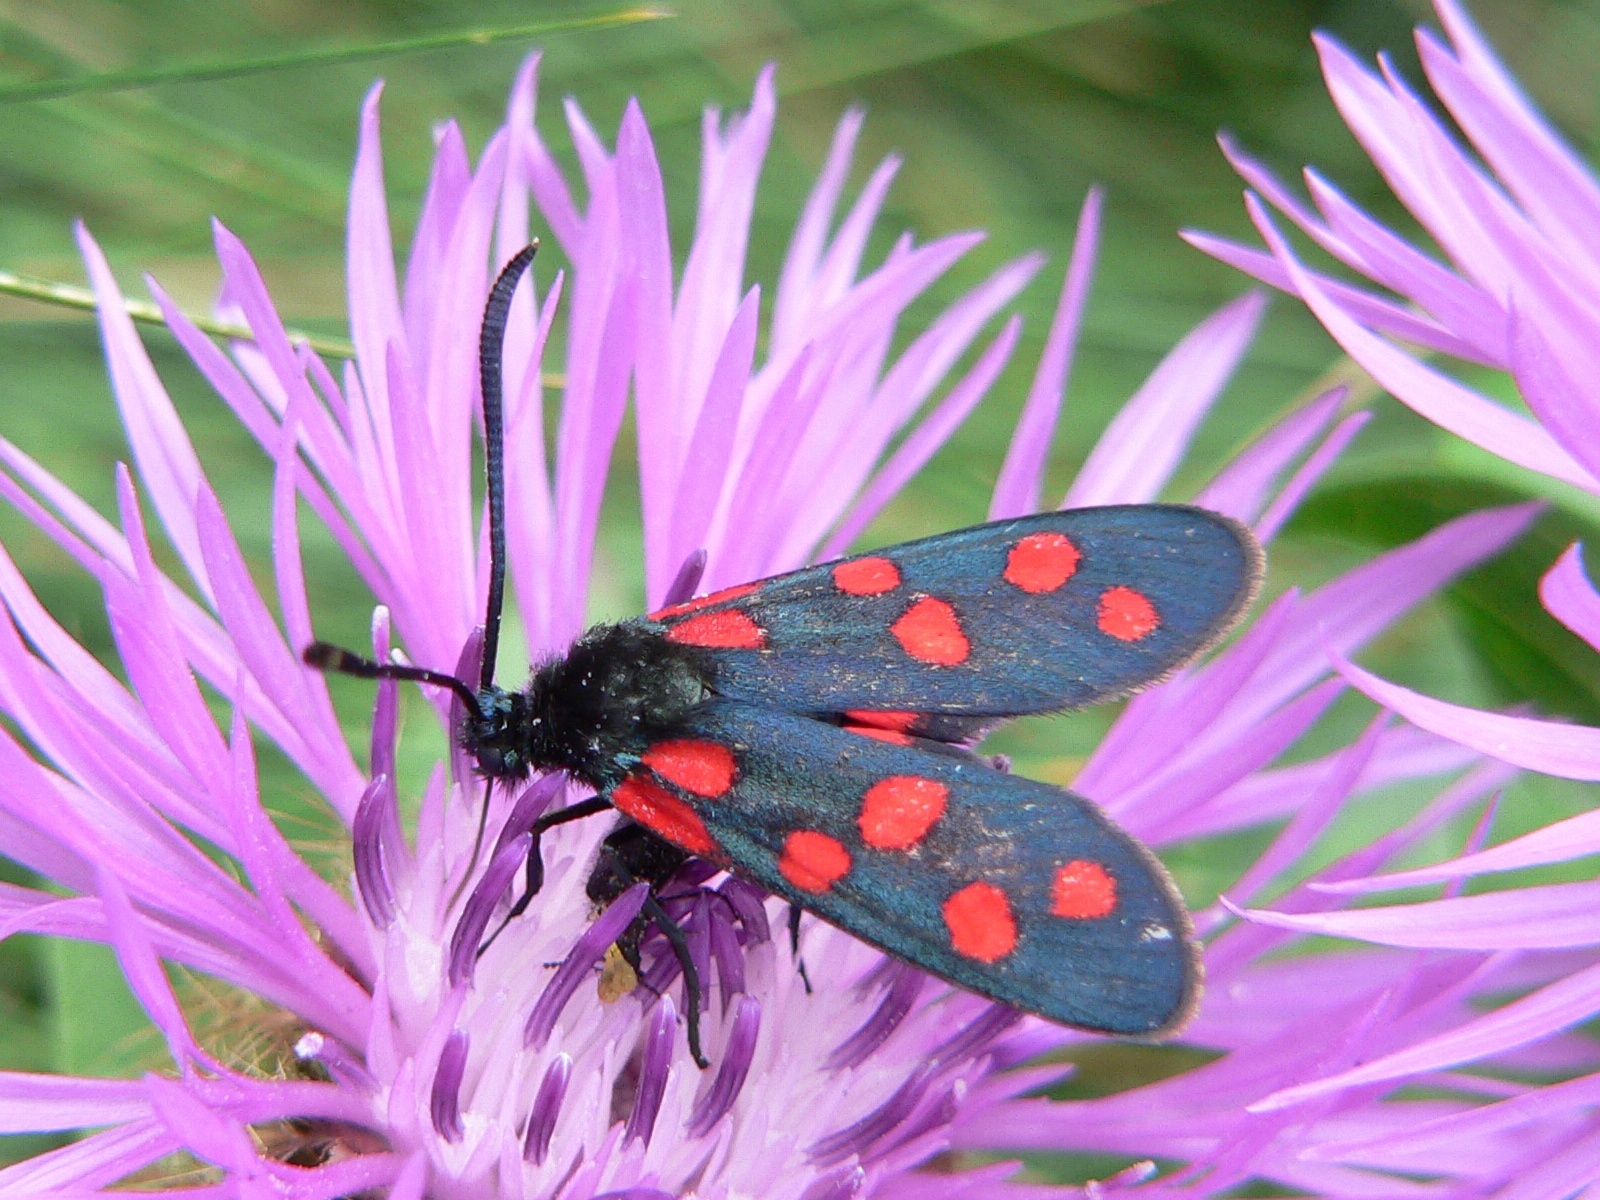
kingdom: Animalia
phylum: Arthropoda
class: Insecta
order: Lepidoptera
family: Zygaenidae
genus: Zygaena
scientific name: Zygaena transalpina
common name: Southern six spot burnet
